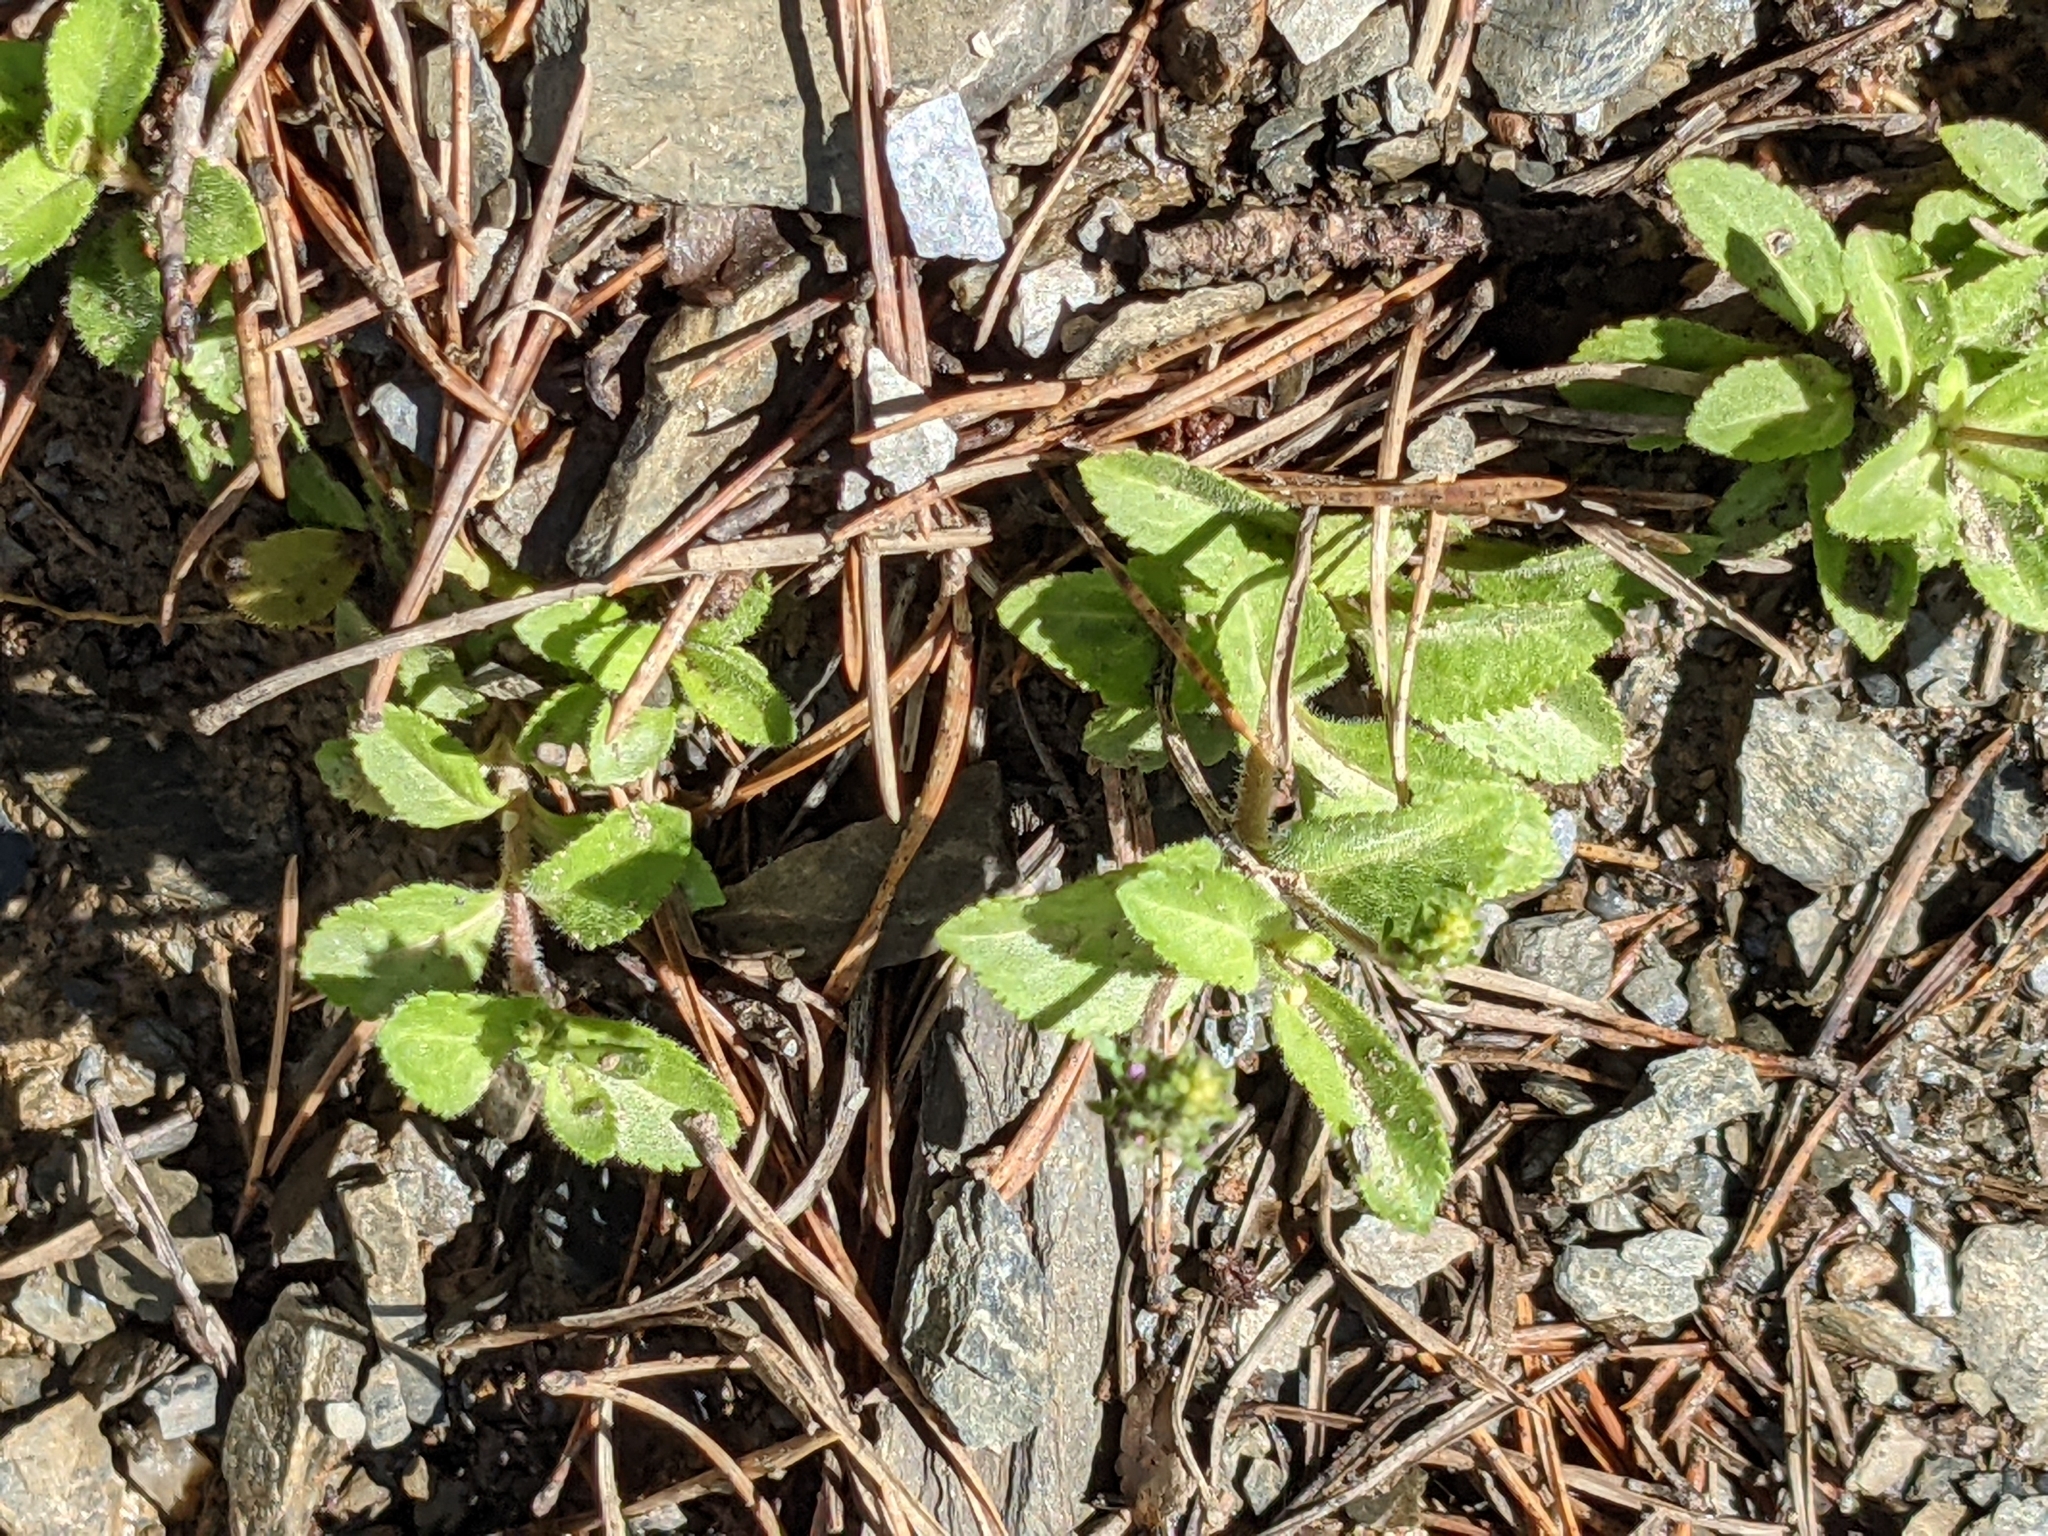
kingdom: Plantae
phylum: Tracheophyta
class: Magnoliopsida
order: Lamiales
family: Plantaginaceae
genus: Veronica
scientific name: Veronica officinalis
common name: Common speedwell
